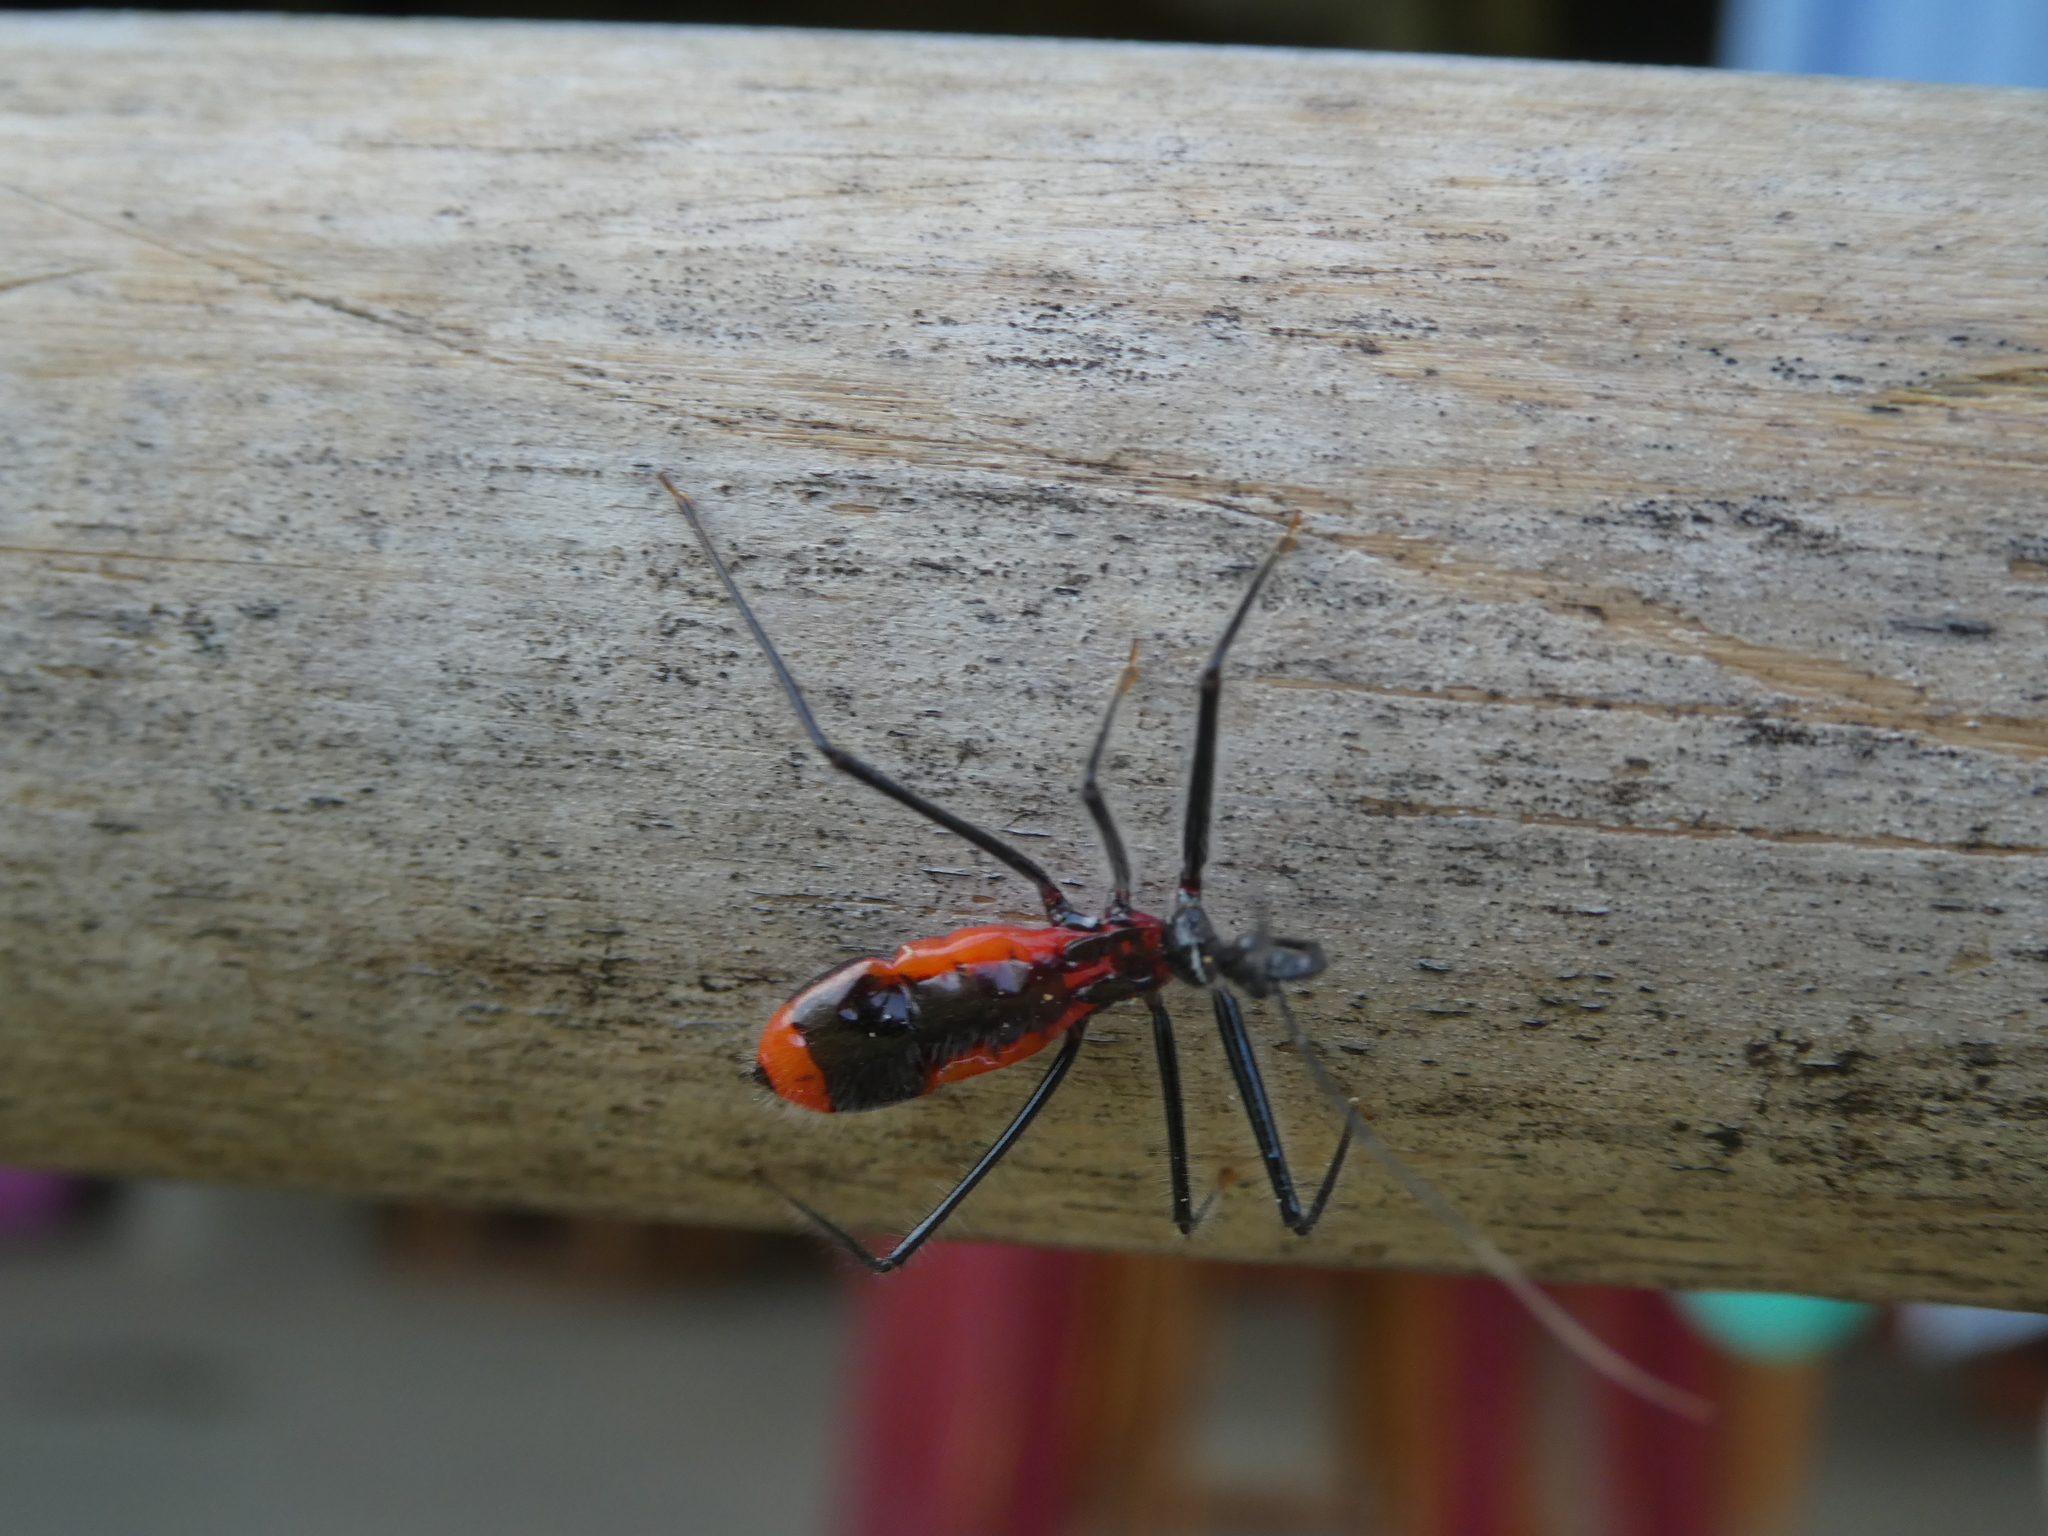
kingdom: Animalia
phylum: Arthropoda
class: Insecta
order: Hemiptera
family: Reduviidae
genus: Narsetes
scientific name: Narsetes longinus
